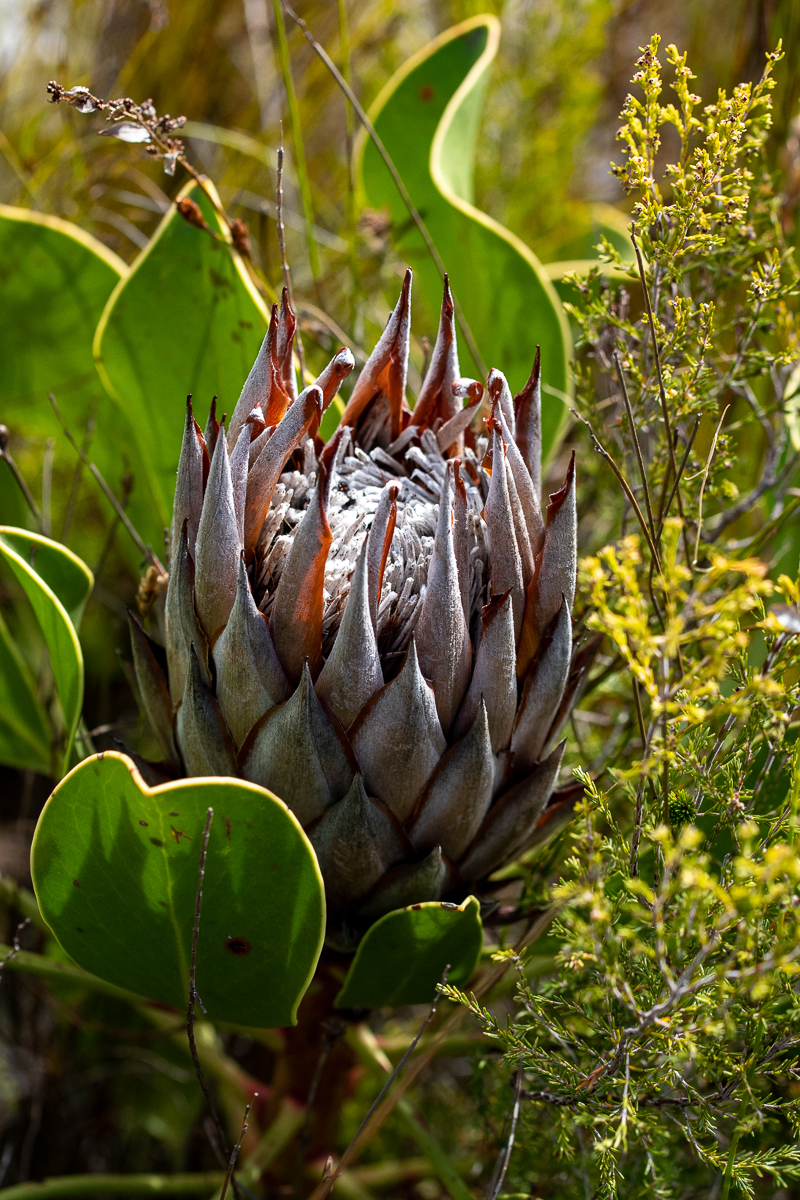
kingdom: Plantae
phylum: Tracheophyta
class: Magnoliopsida
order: Proteales
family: Proteaceae
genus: Protea
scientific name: Protea cynaroides
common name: King protea
